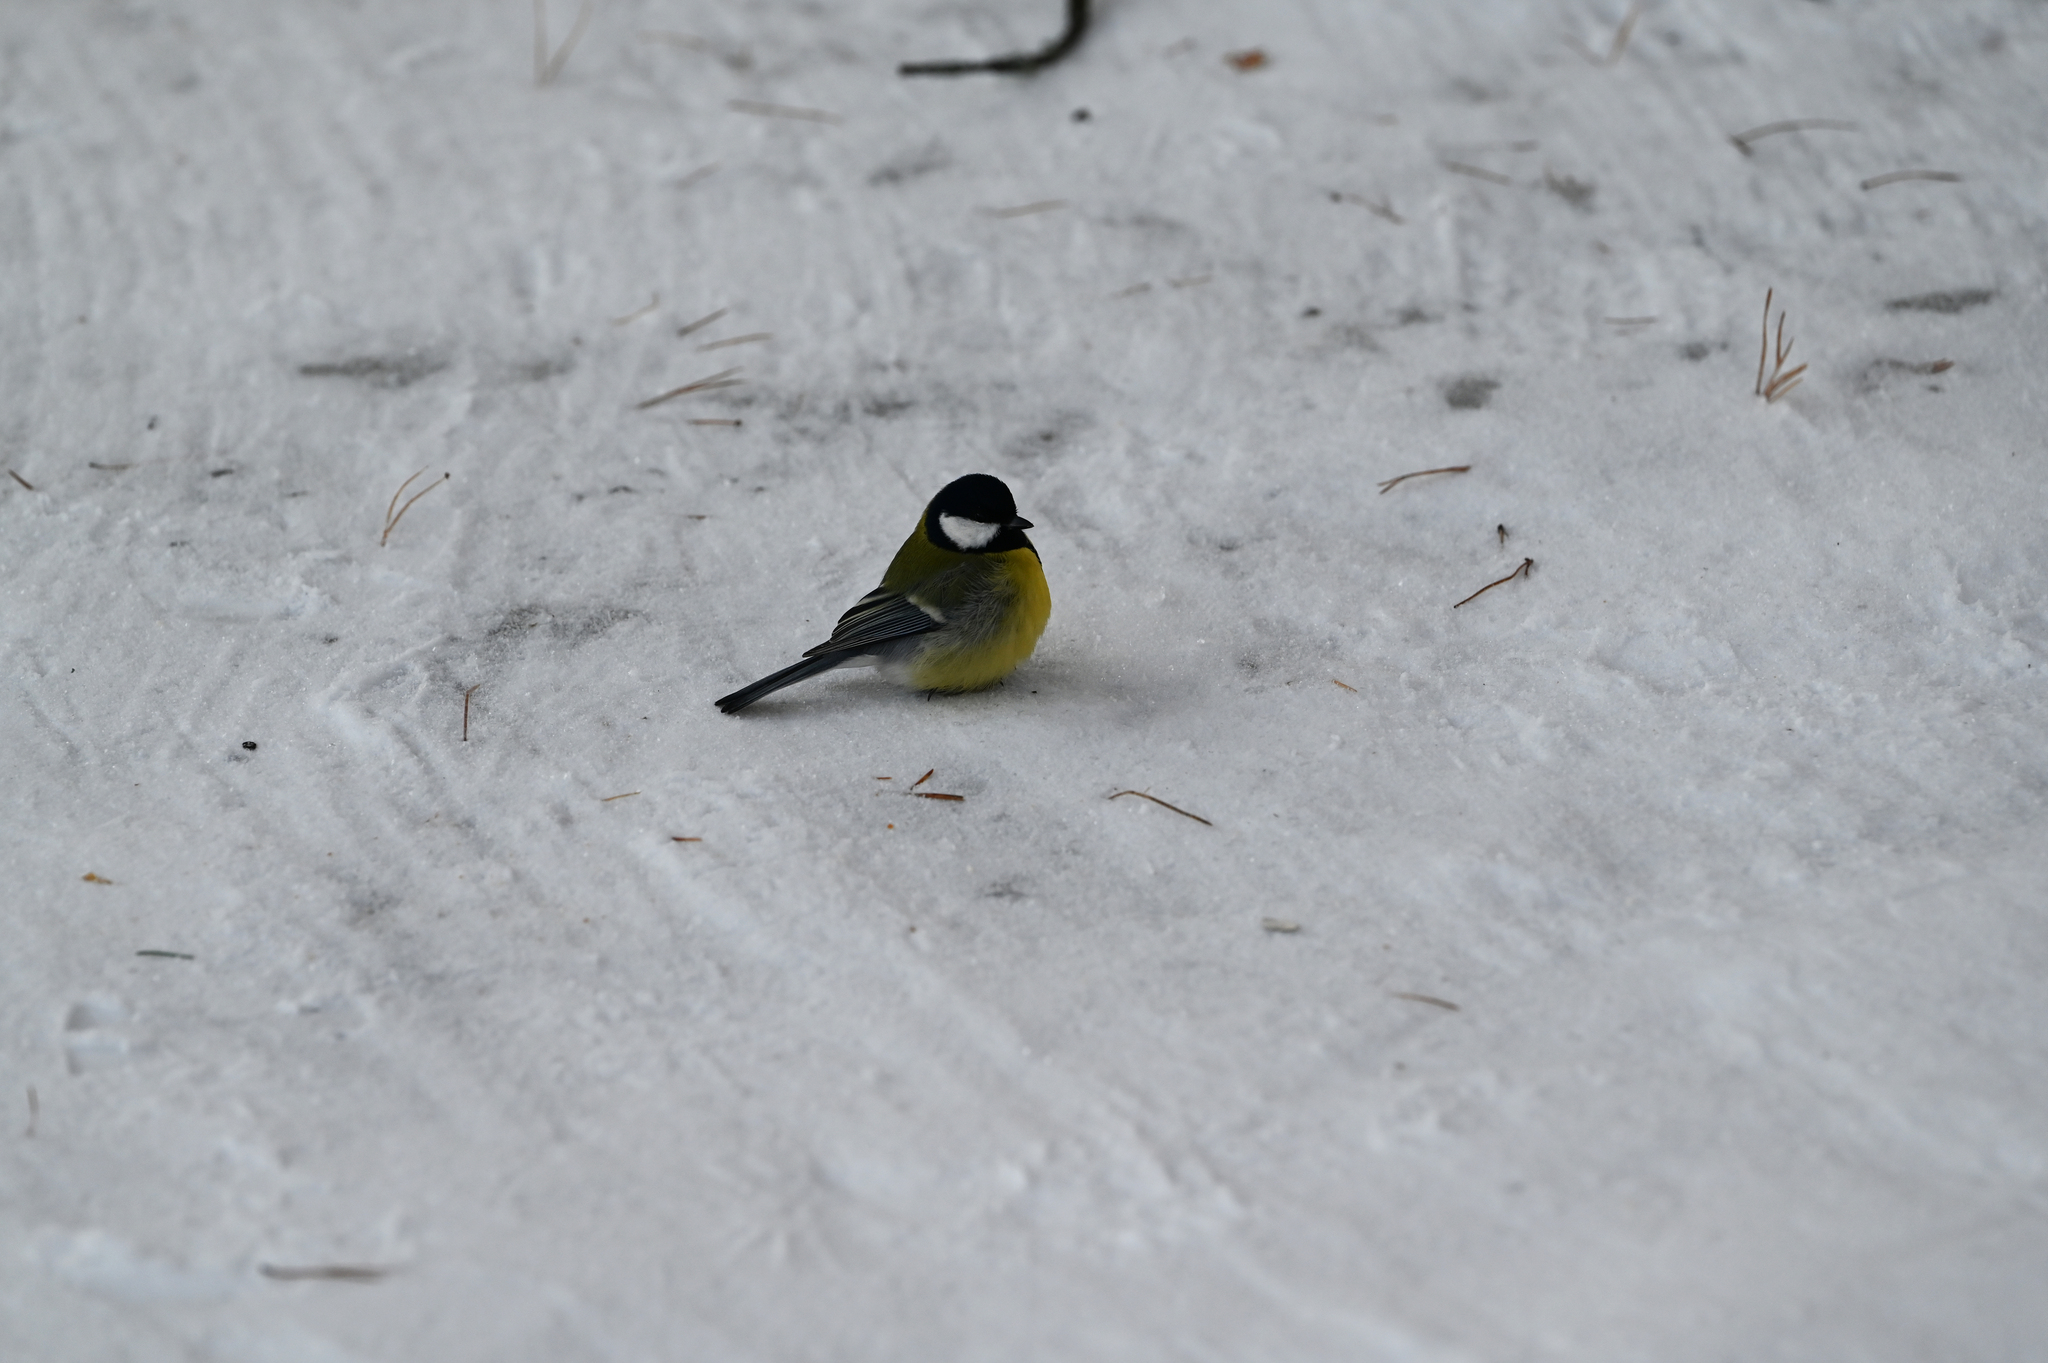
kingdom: Animalia
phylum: Chordata
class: Aves
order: Passeriformes
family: Paridae
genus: Parus
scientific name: Parus major
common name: Great tit
